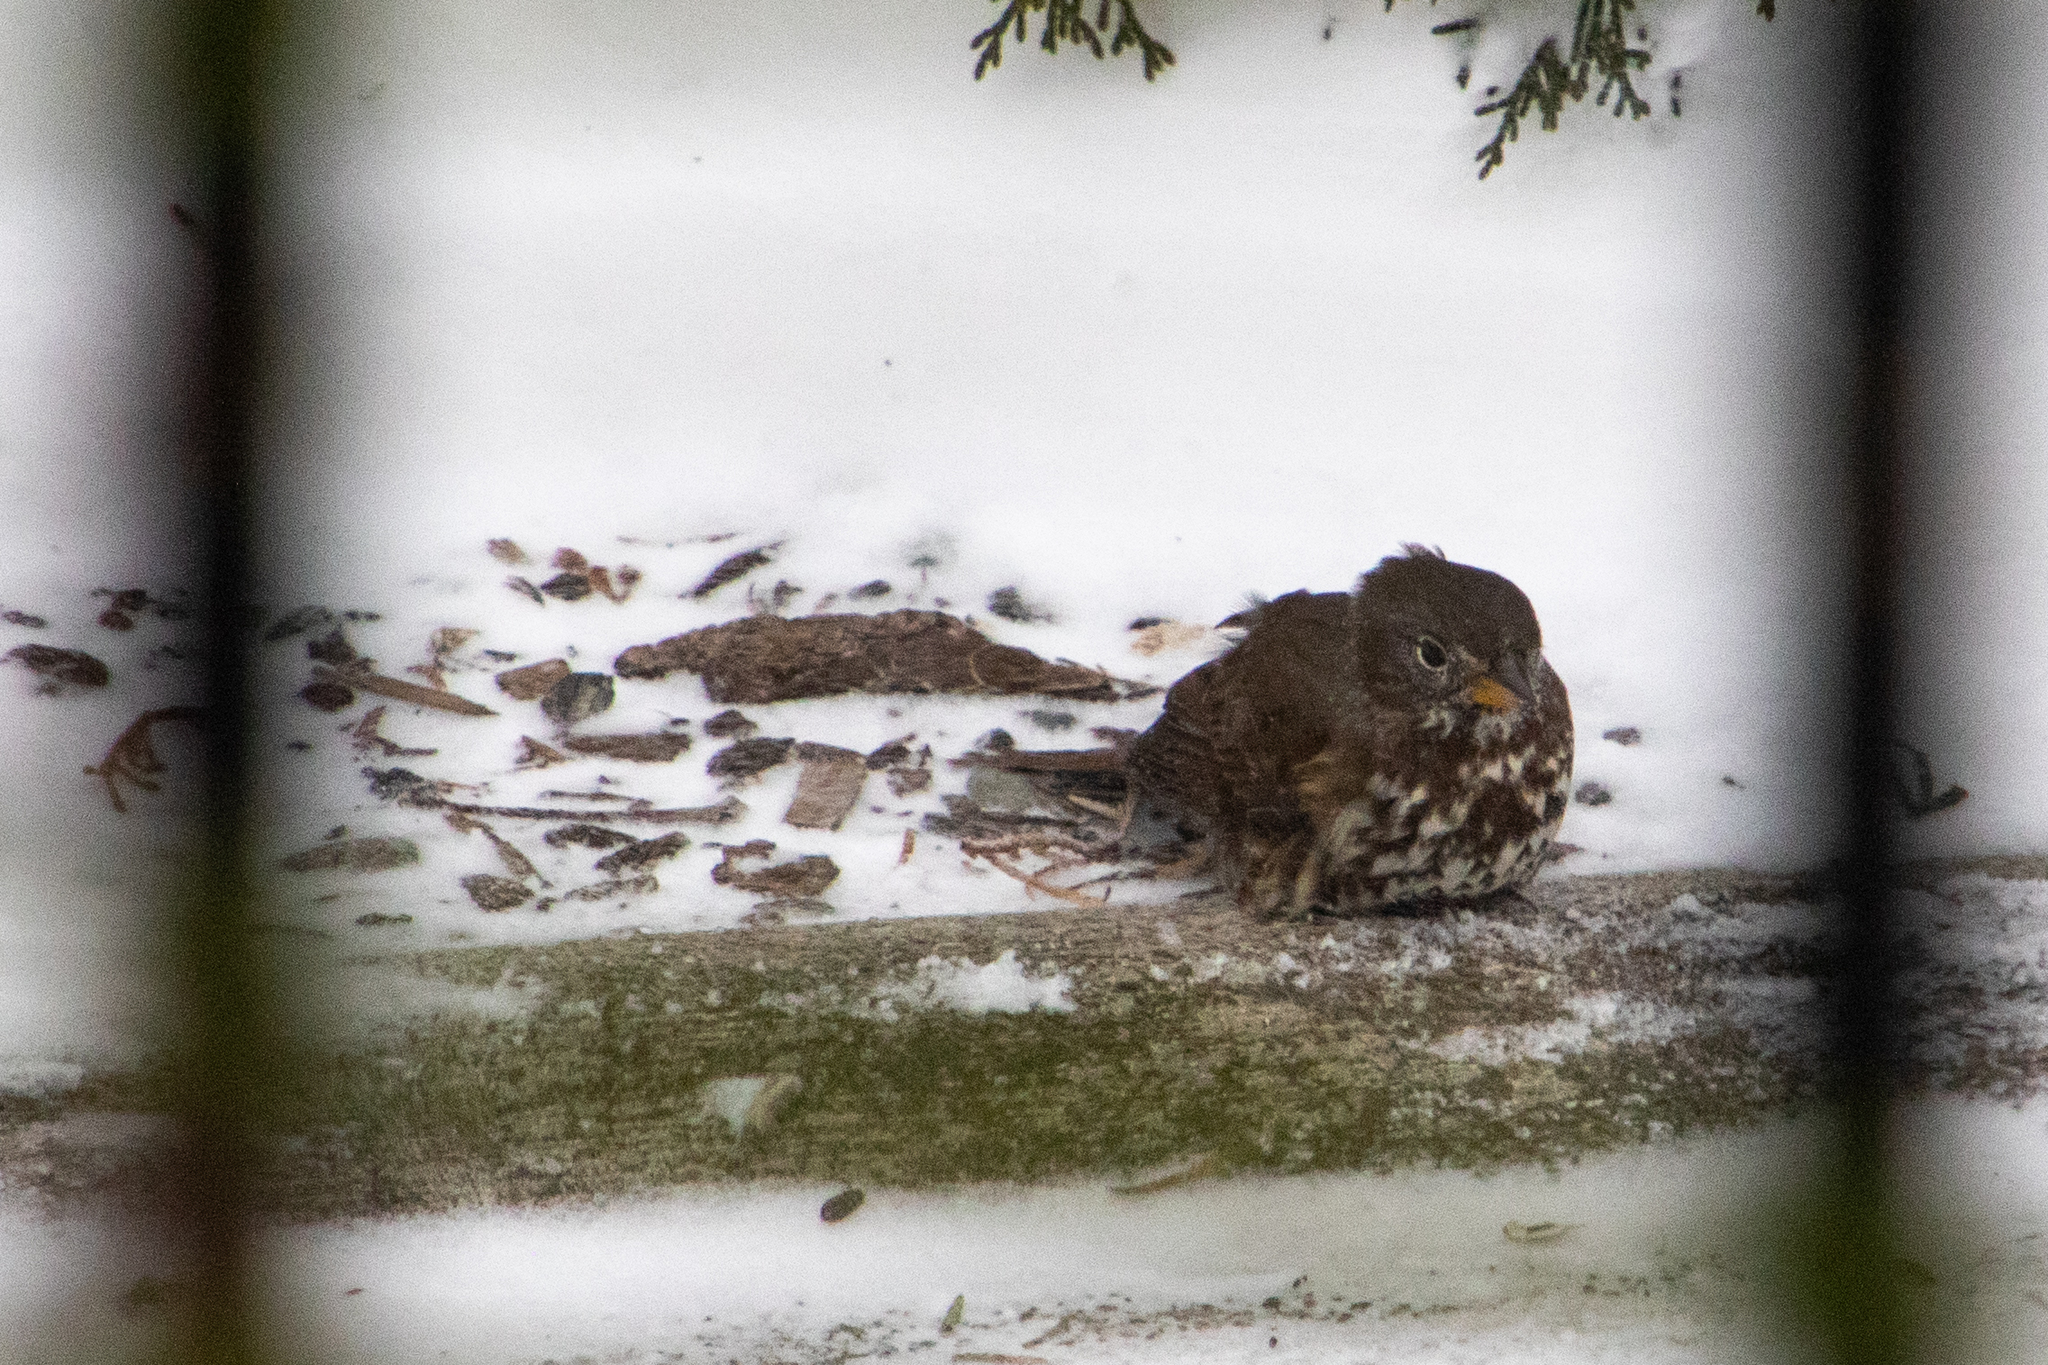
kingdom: Animalia
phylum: Chordata
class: Aves
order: Passeriformes
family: Passerellidae
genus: Passerella
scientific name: Passerella iliaca
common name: Fox sparrow
